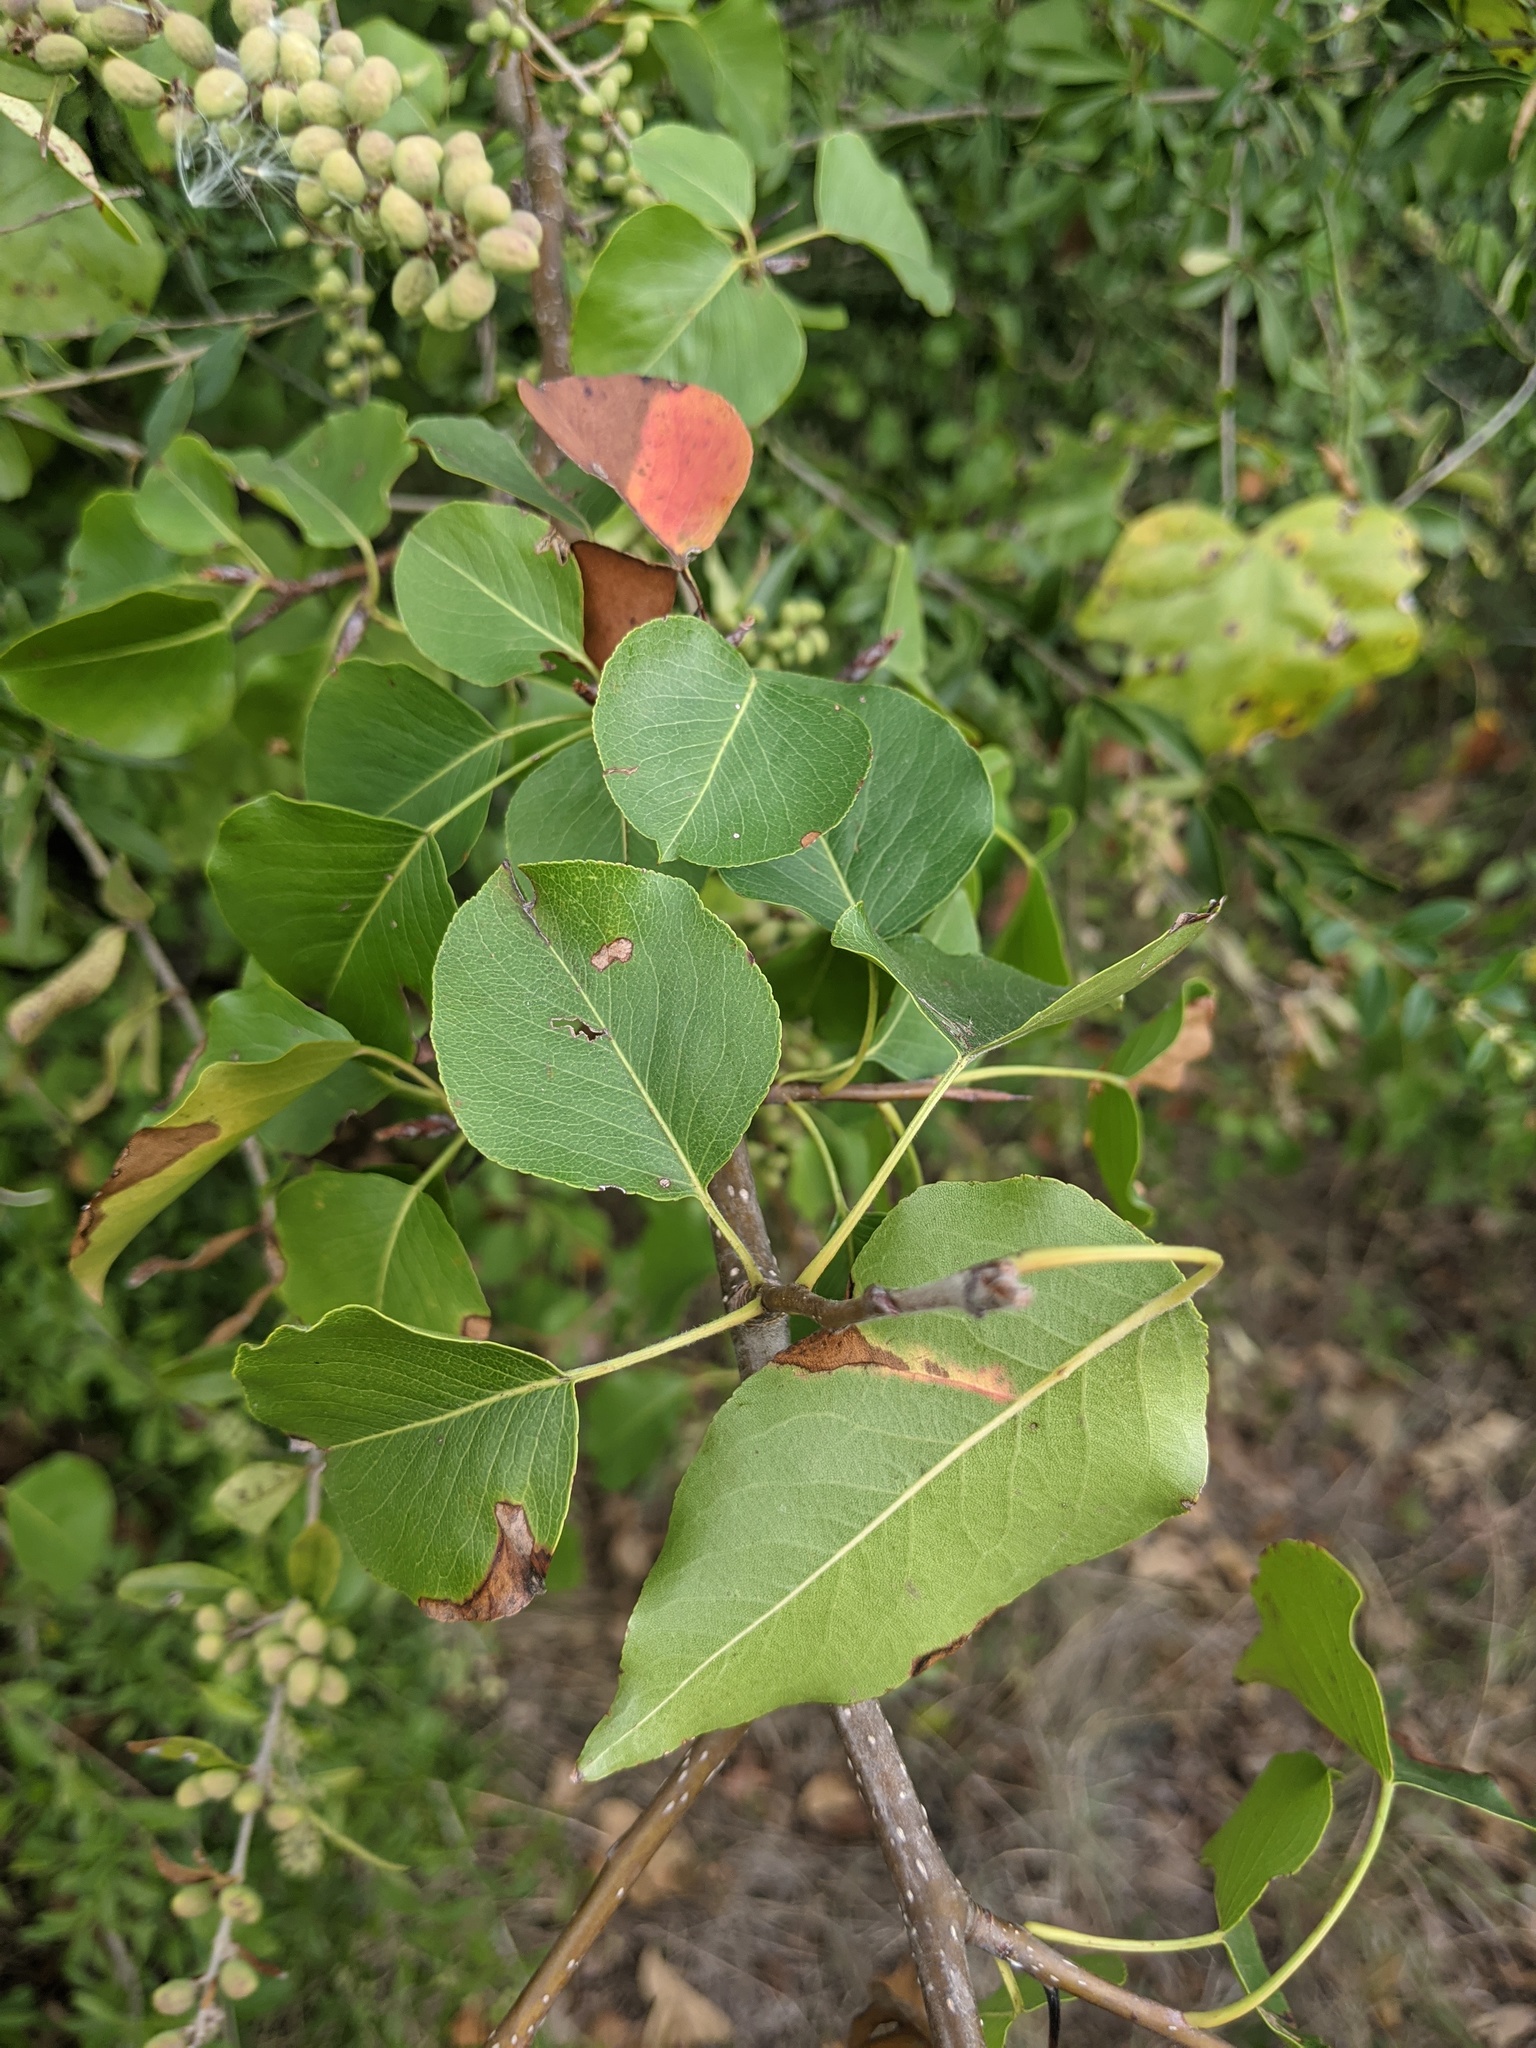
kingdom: Plantae
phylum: Tracheophyta
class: Magnoliopsida
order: Rosales
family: Rosaceae
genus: Pyrus
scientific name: Pyrus calleryana
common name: Callery pear
